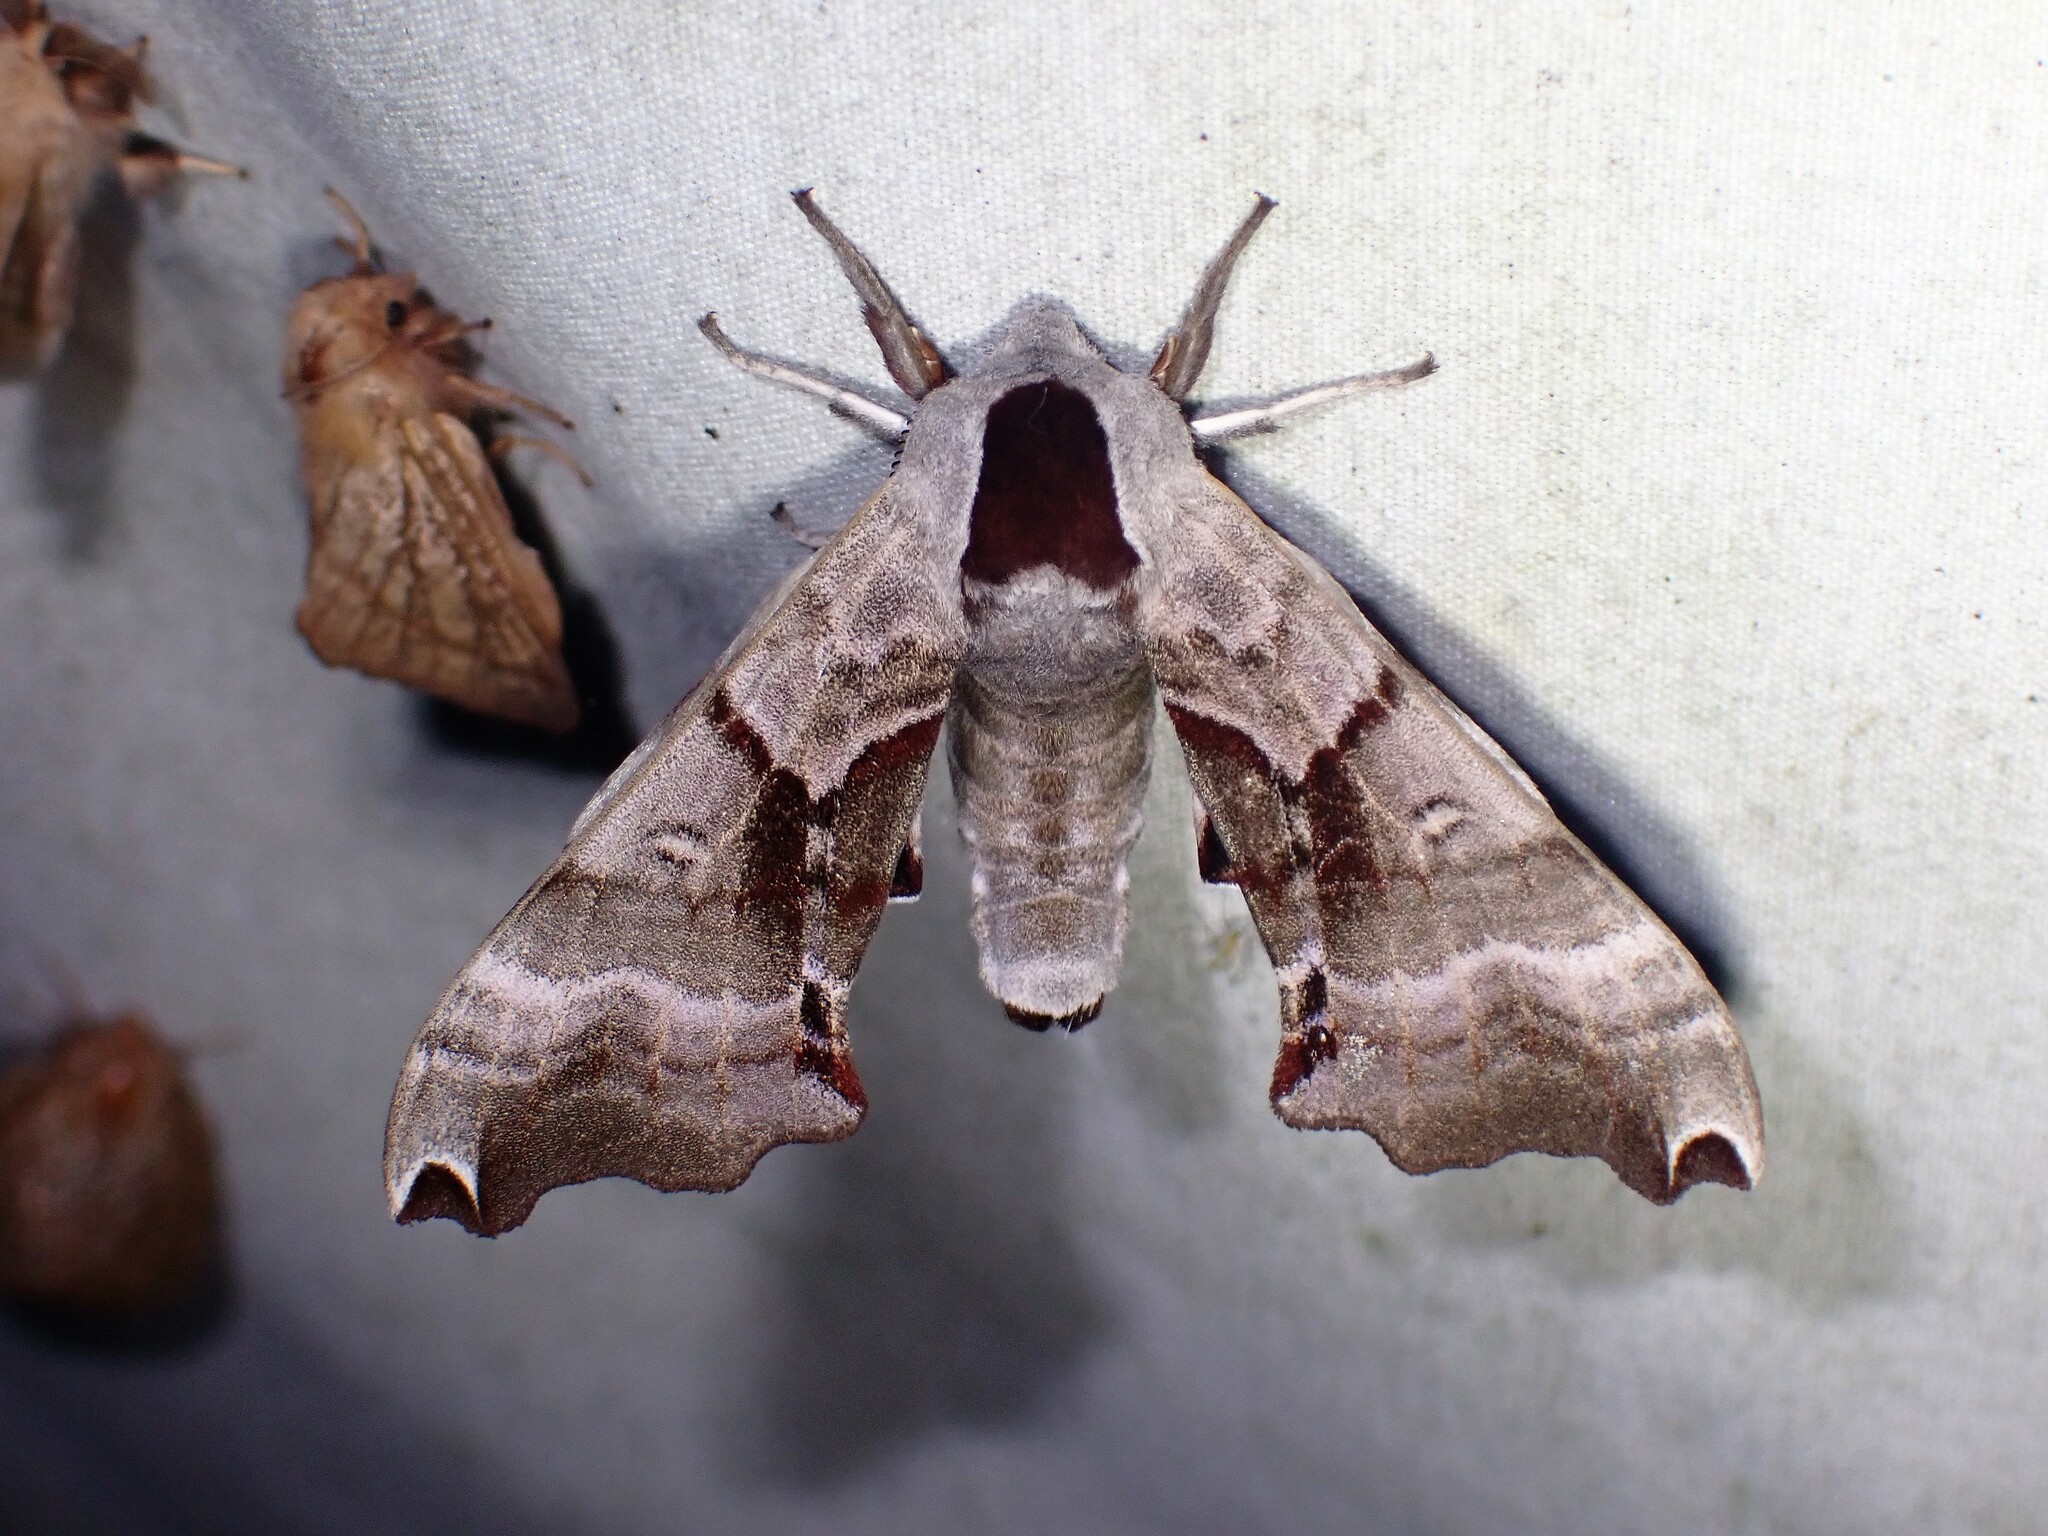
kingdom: Animalia
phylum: Arthropoda
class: Insecta
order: Lepidoptera
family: Sphingidae
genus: Smerinthus
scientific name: Smerinthus jamaicensis
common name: Twin spotted sphinx
